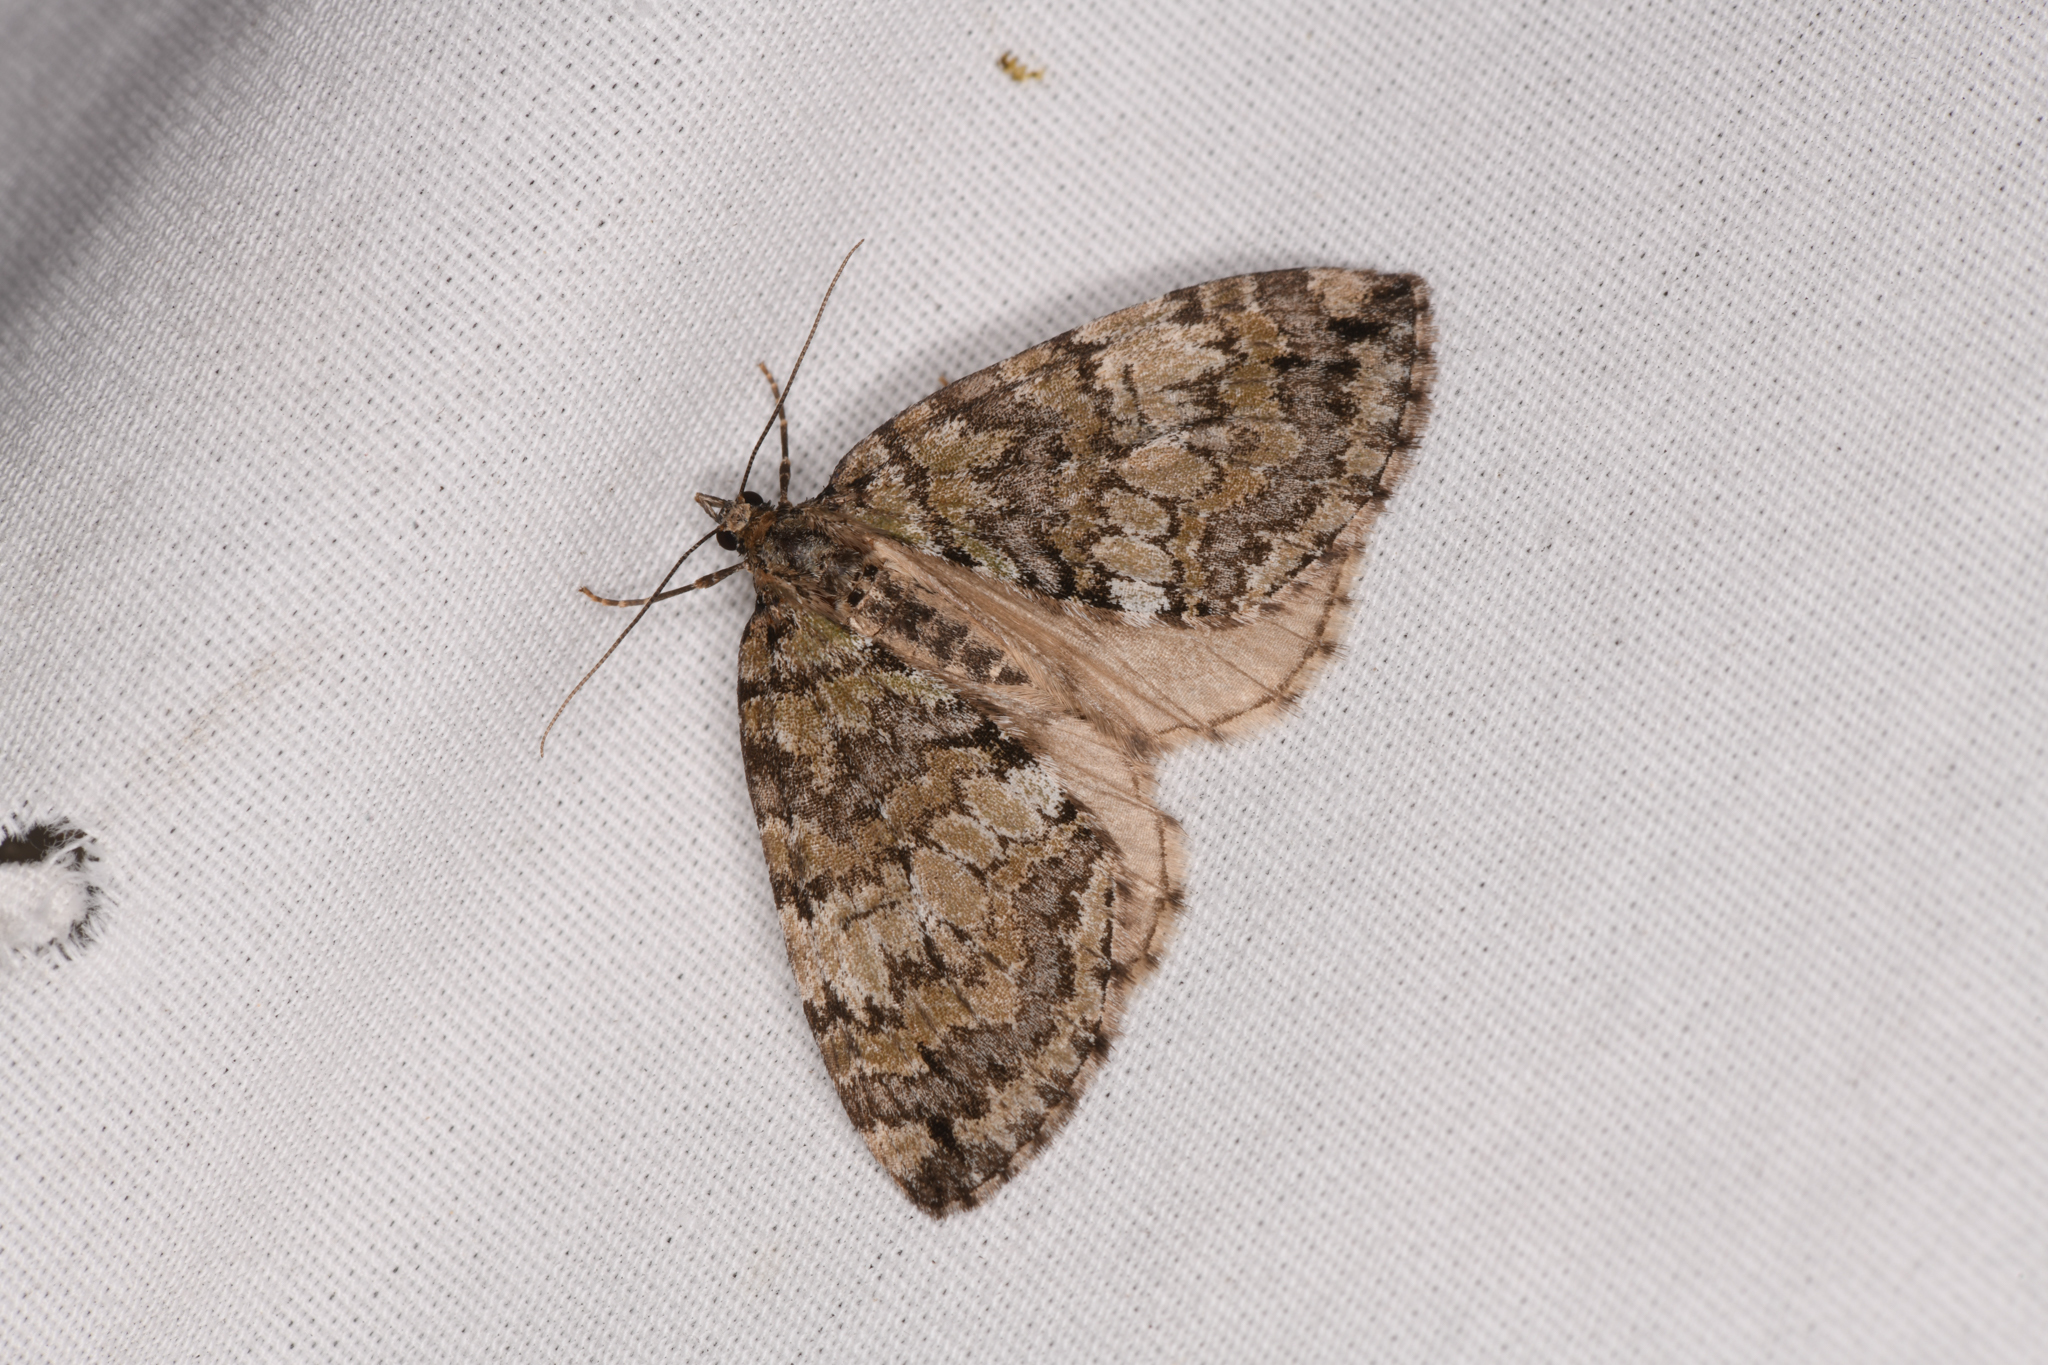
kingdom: Animalia
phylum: Arthropoda
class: Insecta
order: Lepidoptera
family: Geometridae
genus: Hydriomena
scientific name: Hydriomena nubilofasciata
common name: Oak winter highflier moth
